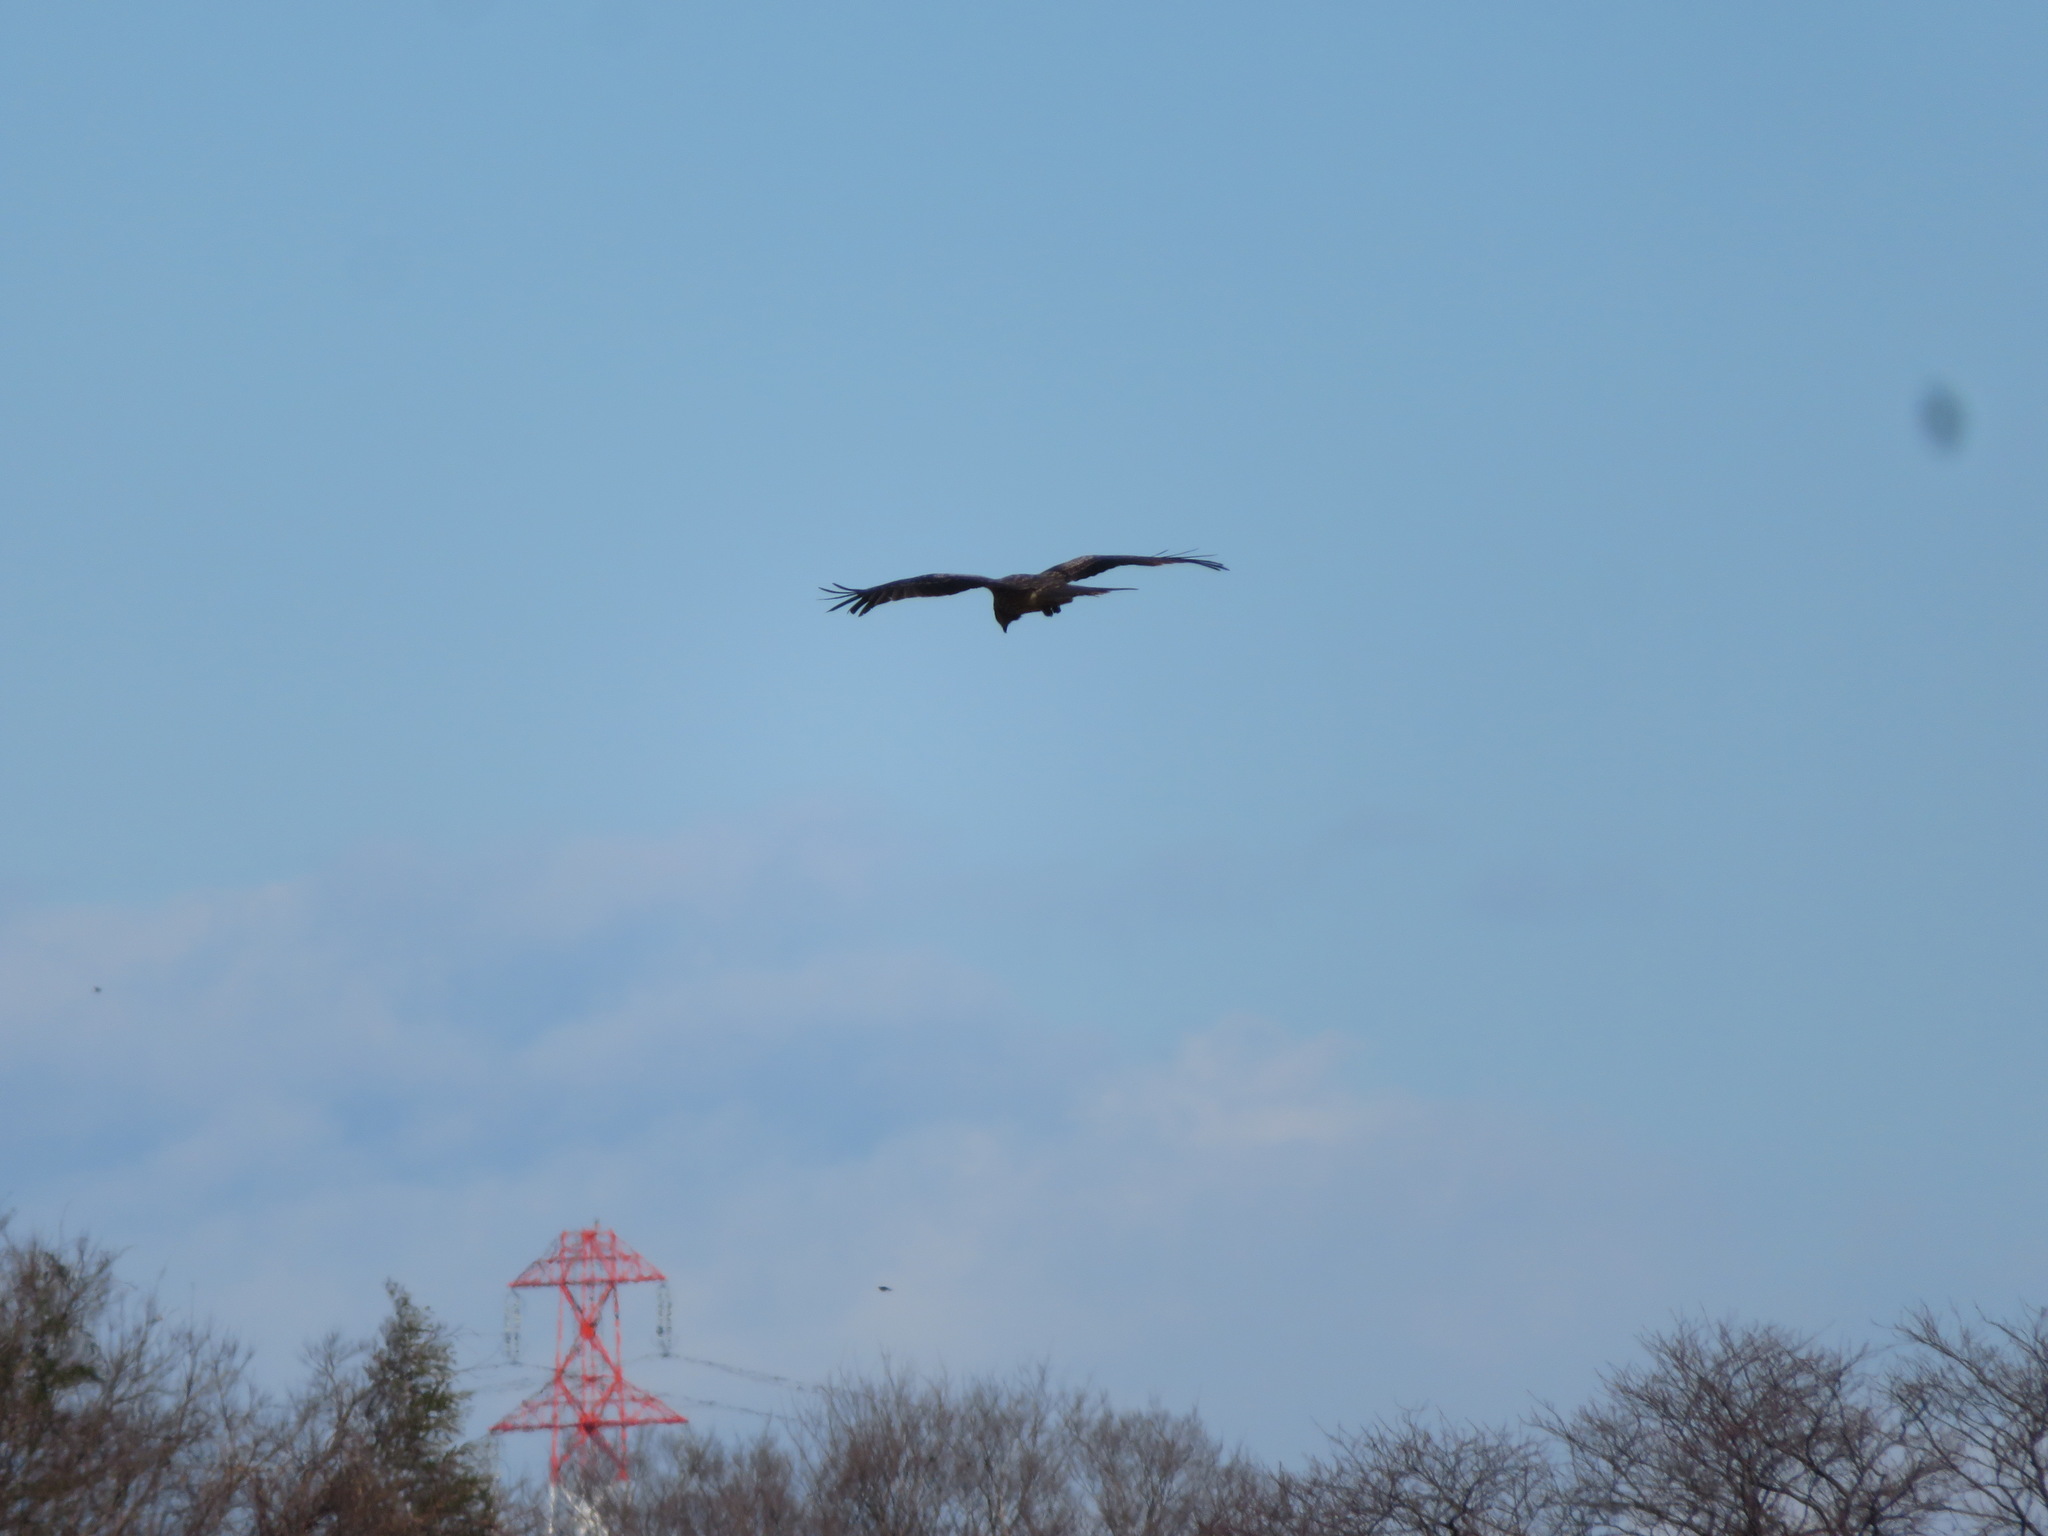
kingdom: Animalia
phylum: Chordata
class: Aves
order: Accipitriformes
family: Accipitridae
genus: Milvus
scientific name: Milvus migrans
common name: Black kite
